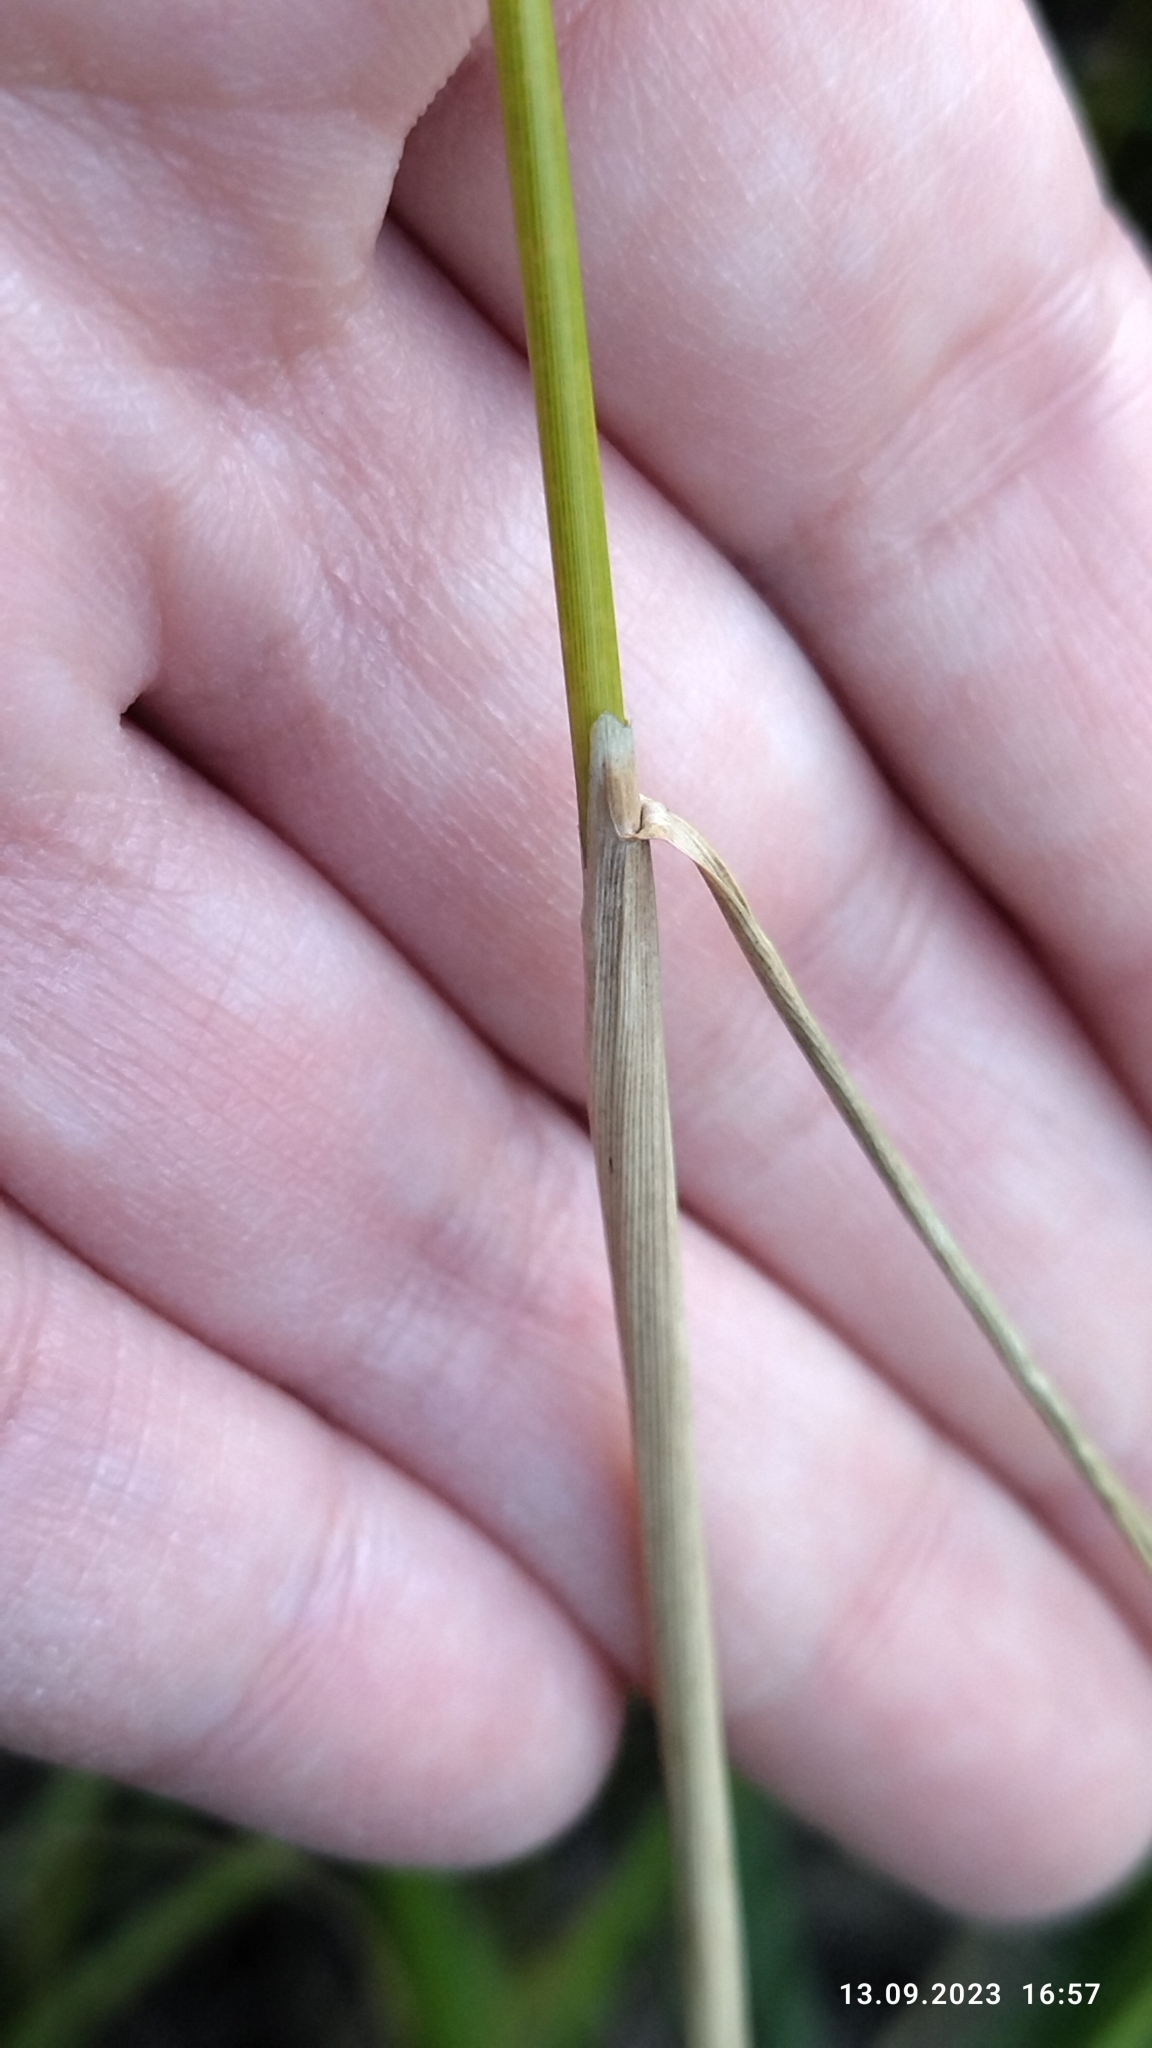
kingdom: Plantae
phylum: Tracheophyta
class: Liliopsida
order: Poales
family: Poaceae
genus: Calamagrostis
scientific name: Calamagrostis epigejos
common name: Wood small-reed
